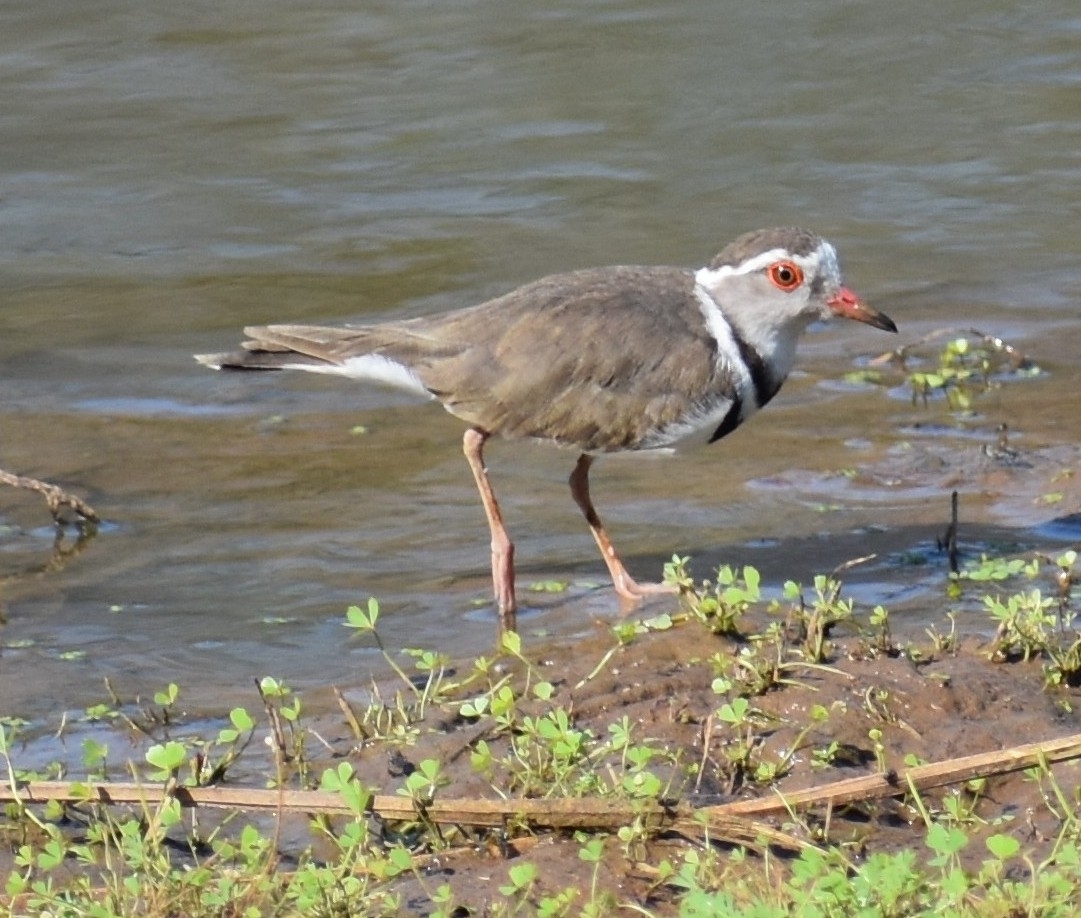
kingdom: Animalia
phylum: Chordata
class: Aves
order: Charadriiformes
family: Charadriidae
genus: Charadrius
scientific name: Charadrius tricollaris
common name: Three-banded plover
